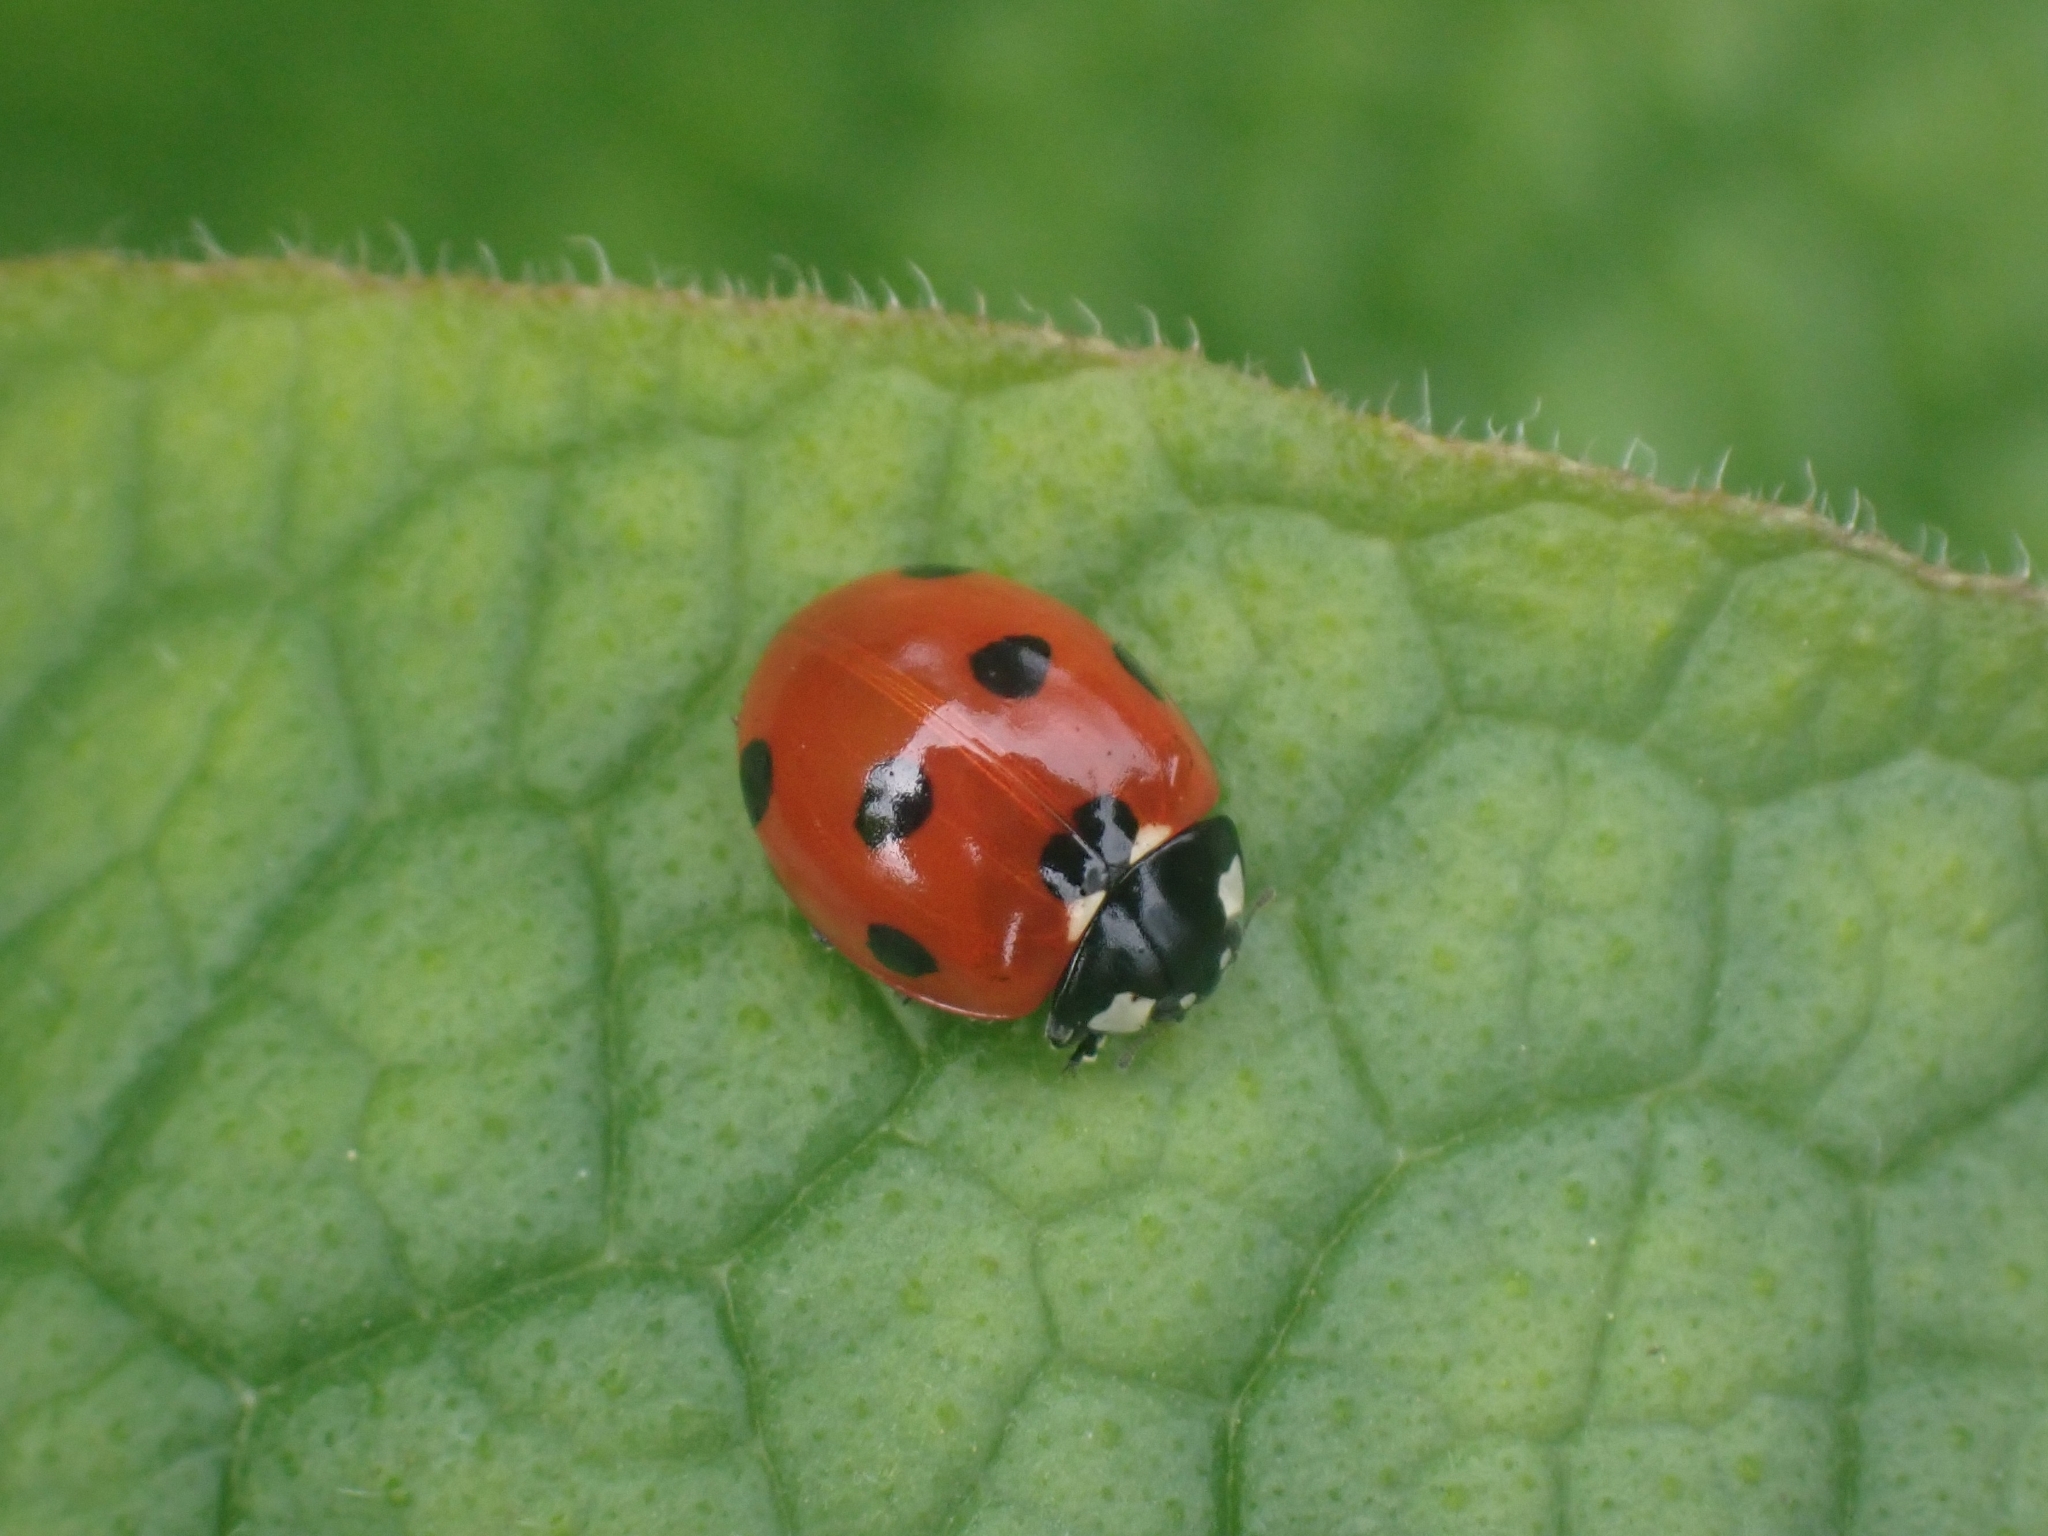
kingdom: Animalia
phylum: Arthropoda
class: Insecta
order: Coleoptera
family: Coccinellidae
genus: Coccinella
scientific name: Coccinella septempunctata
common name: Sevenspotted lady beetle
